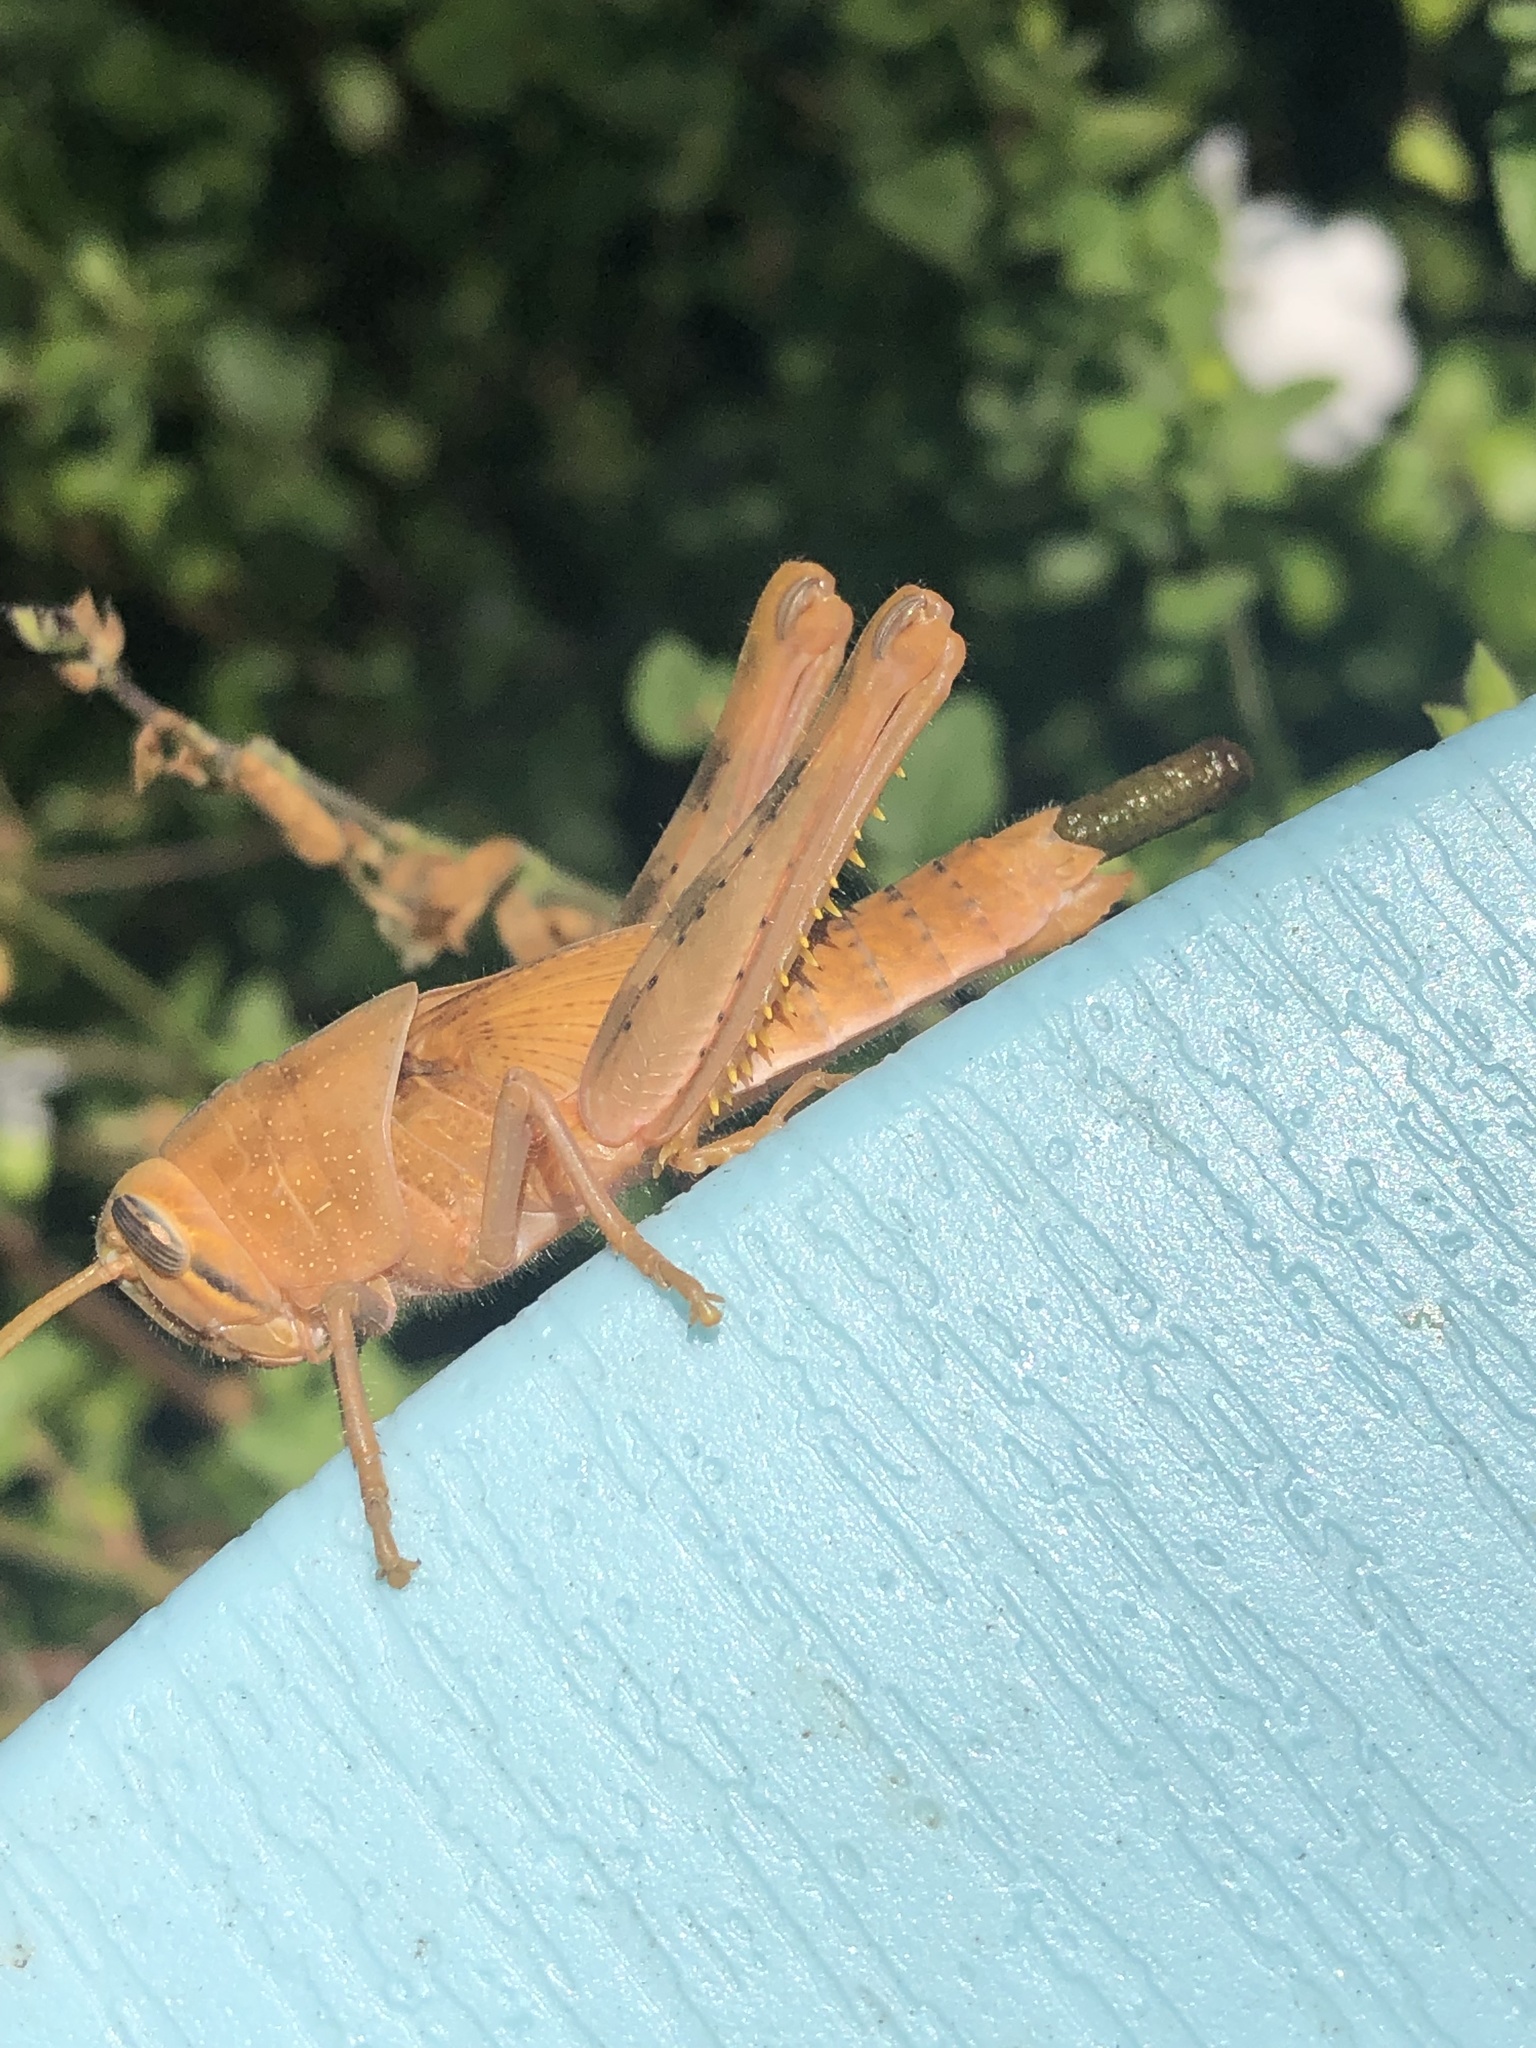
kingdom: Animalia
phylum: Arthropoda
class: Insecta
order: Orthoptera
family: Acrididae
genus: Schistocerca
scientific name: Schistocerca nitens
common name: Vagrant grasshopper
